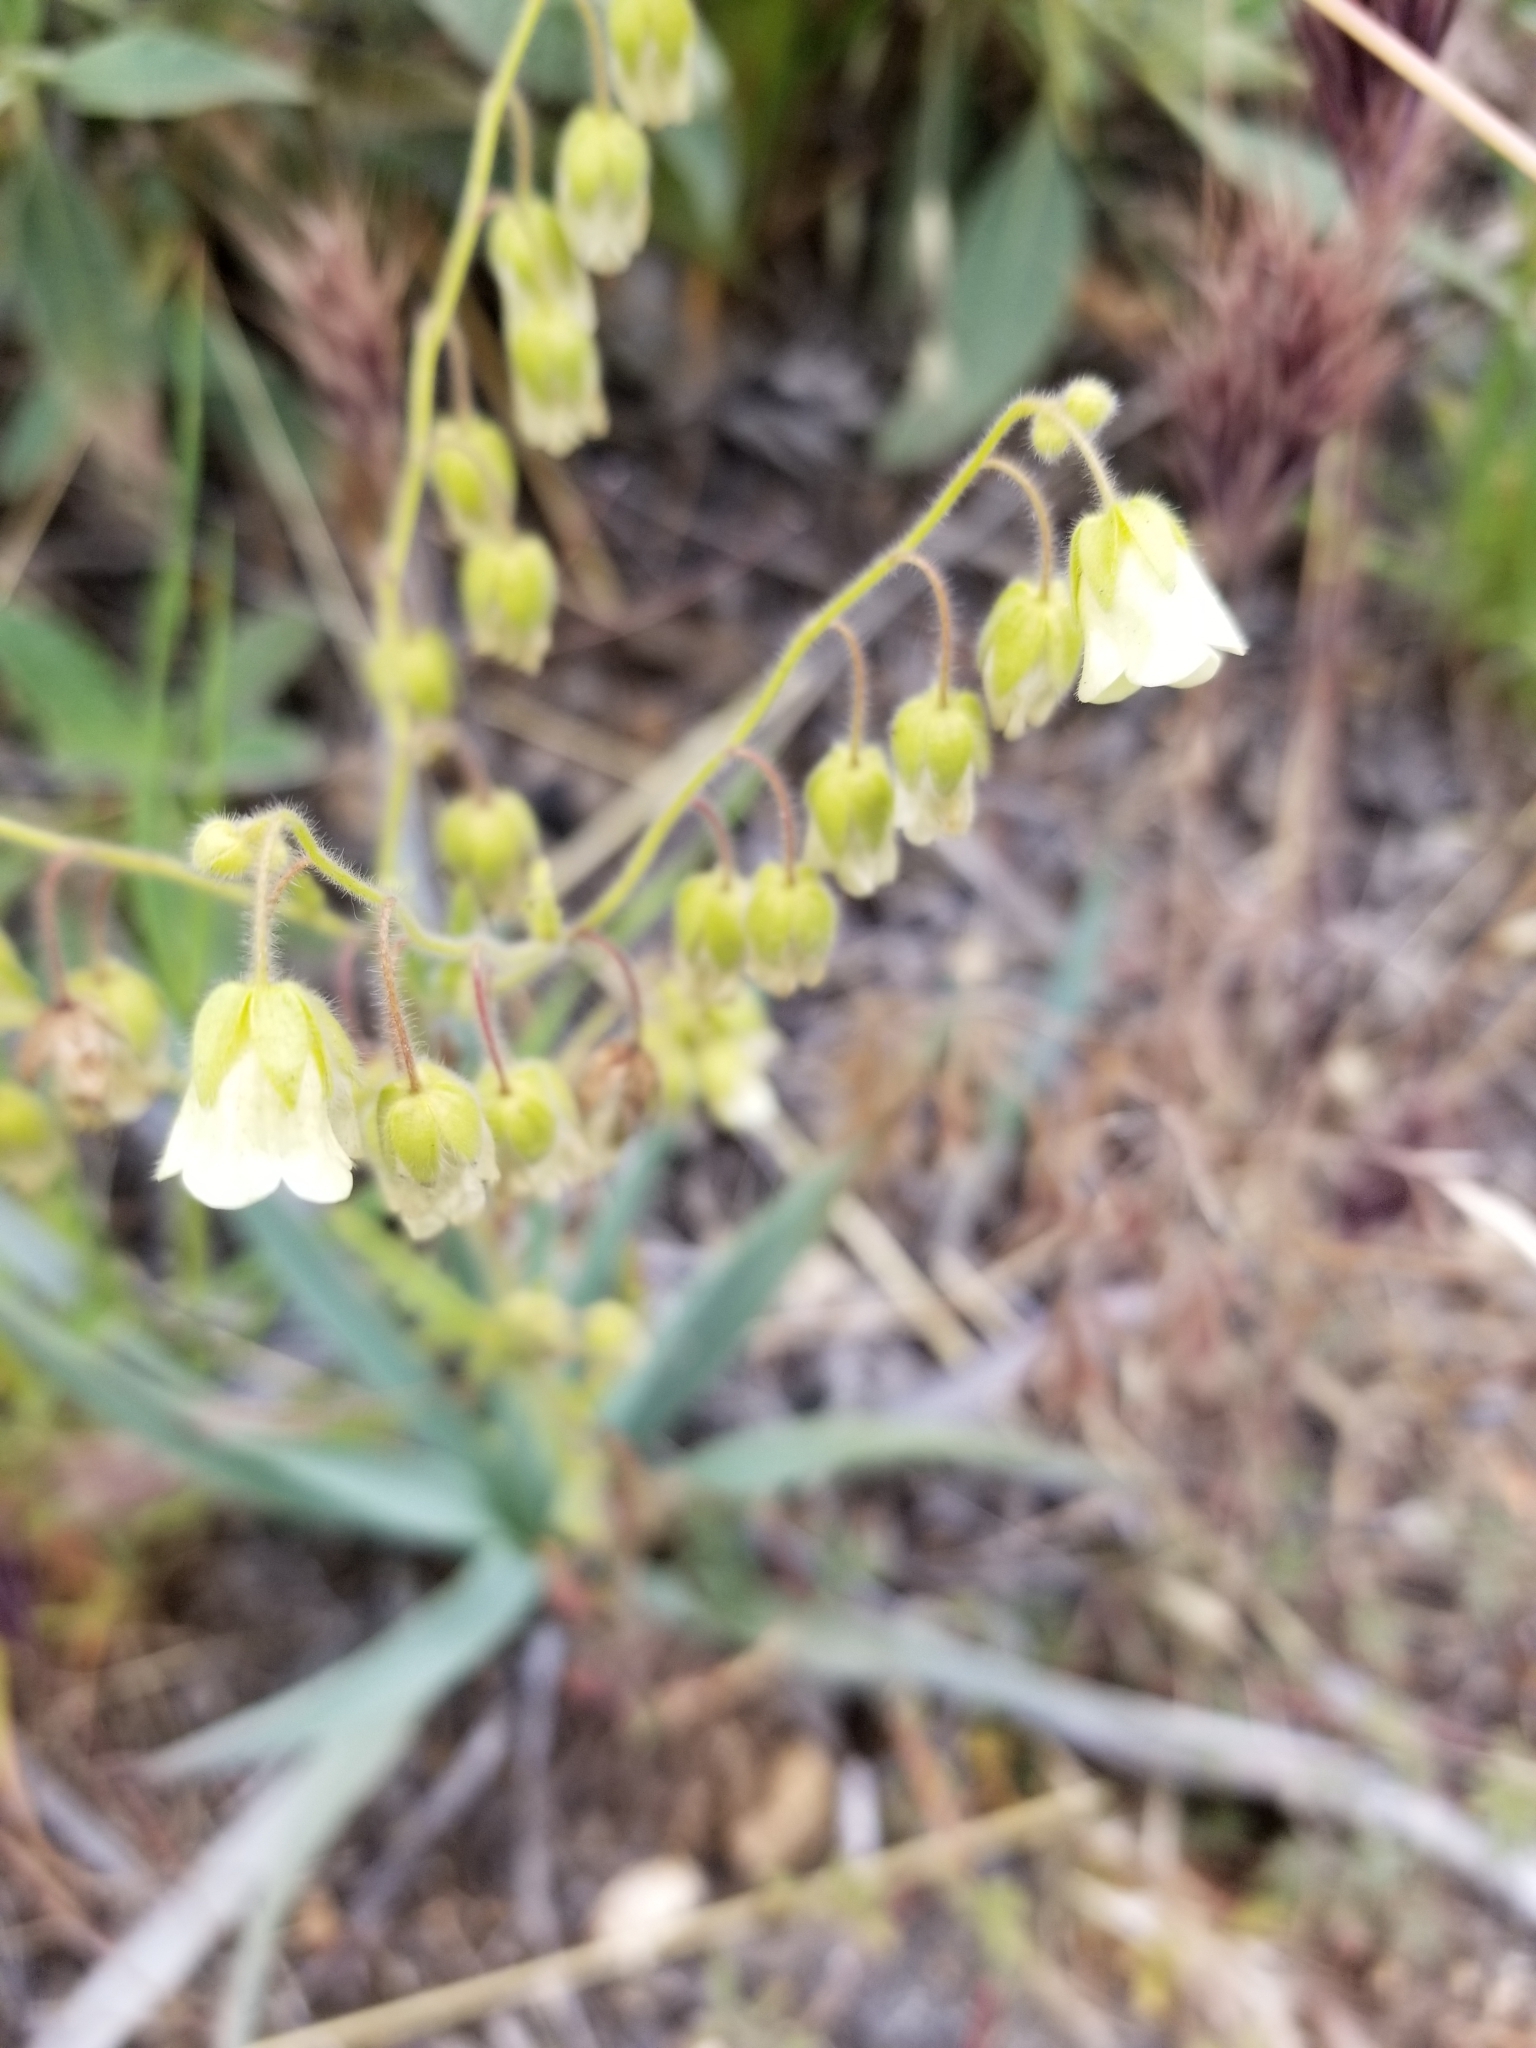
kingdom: Plantae
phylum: Tracheophyta
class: Magnoliopsida
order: Boraginales
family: Hydrophyllaceae
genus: Emmenanthe
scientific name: Emmenanthe penduliflora
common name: Whispering-bells
